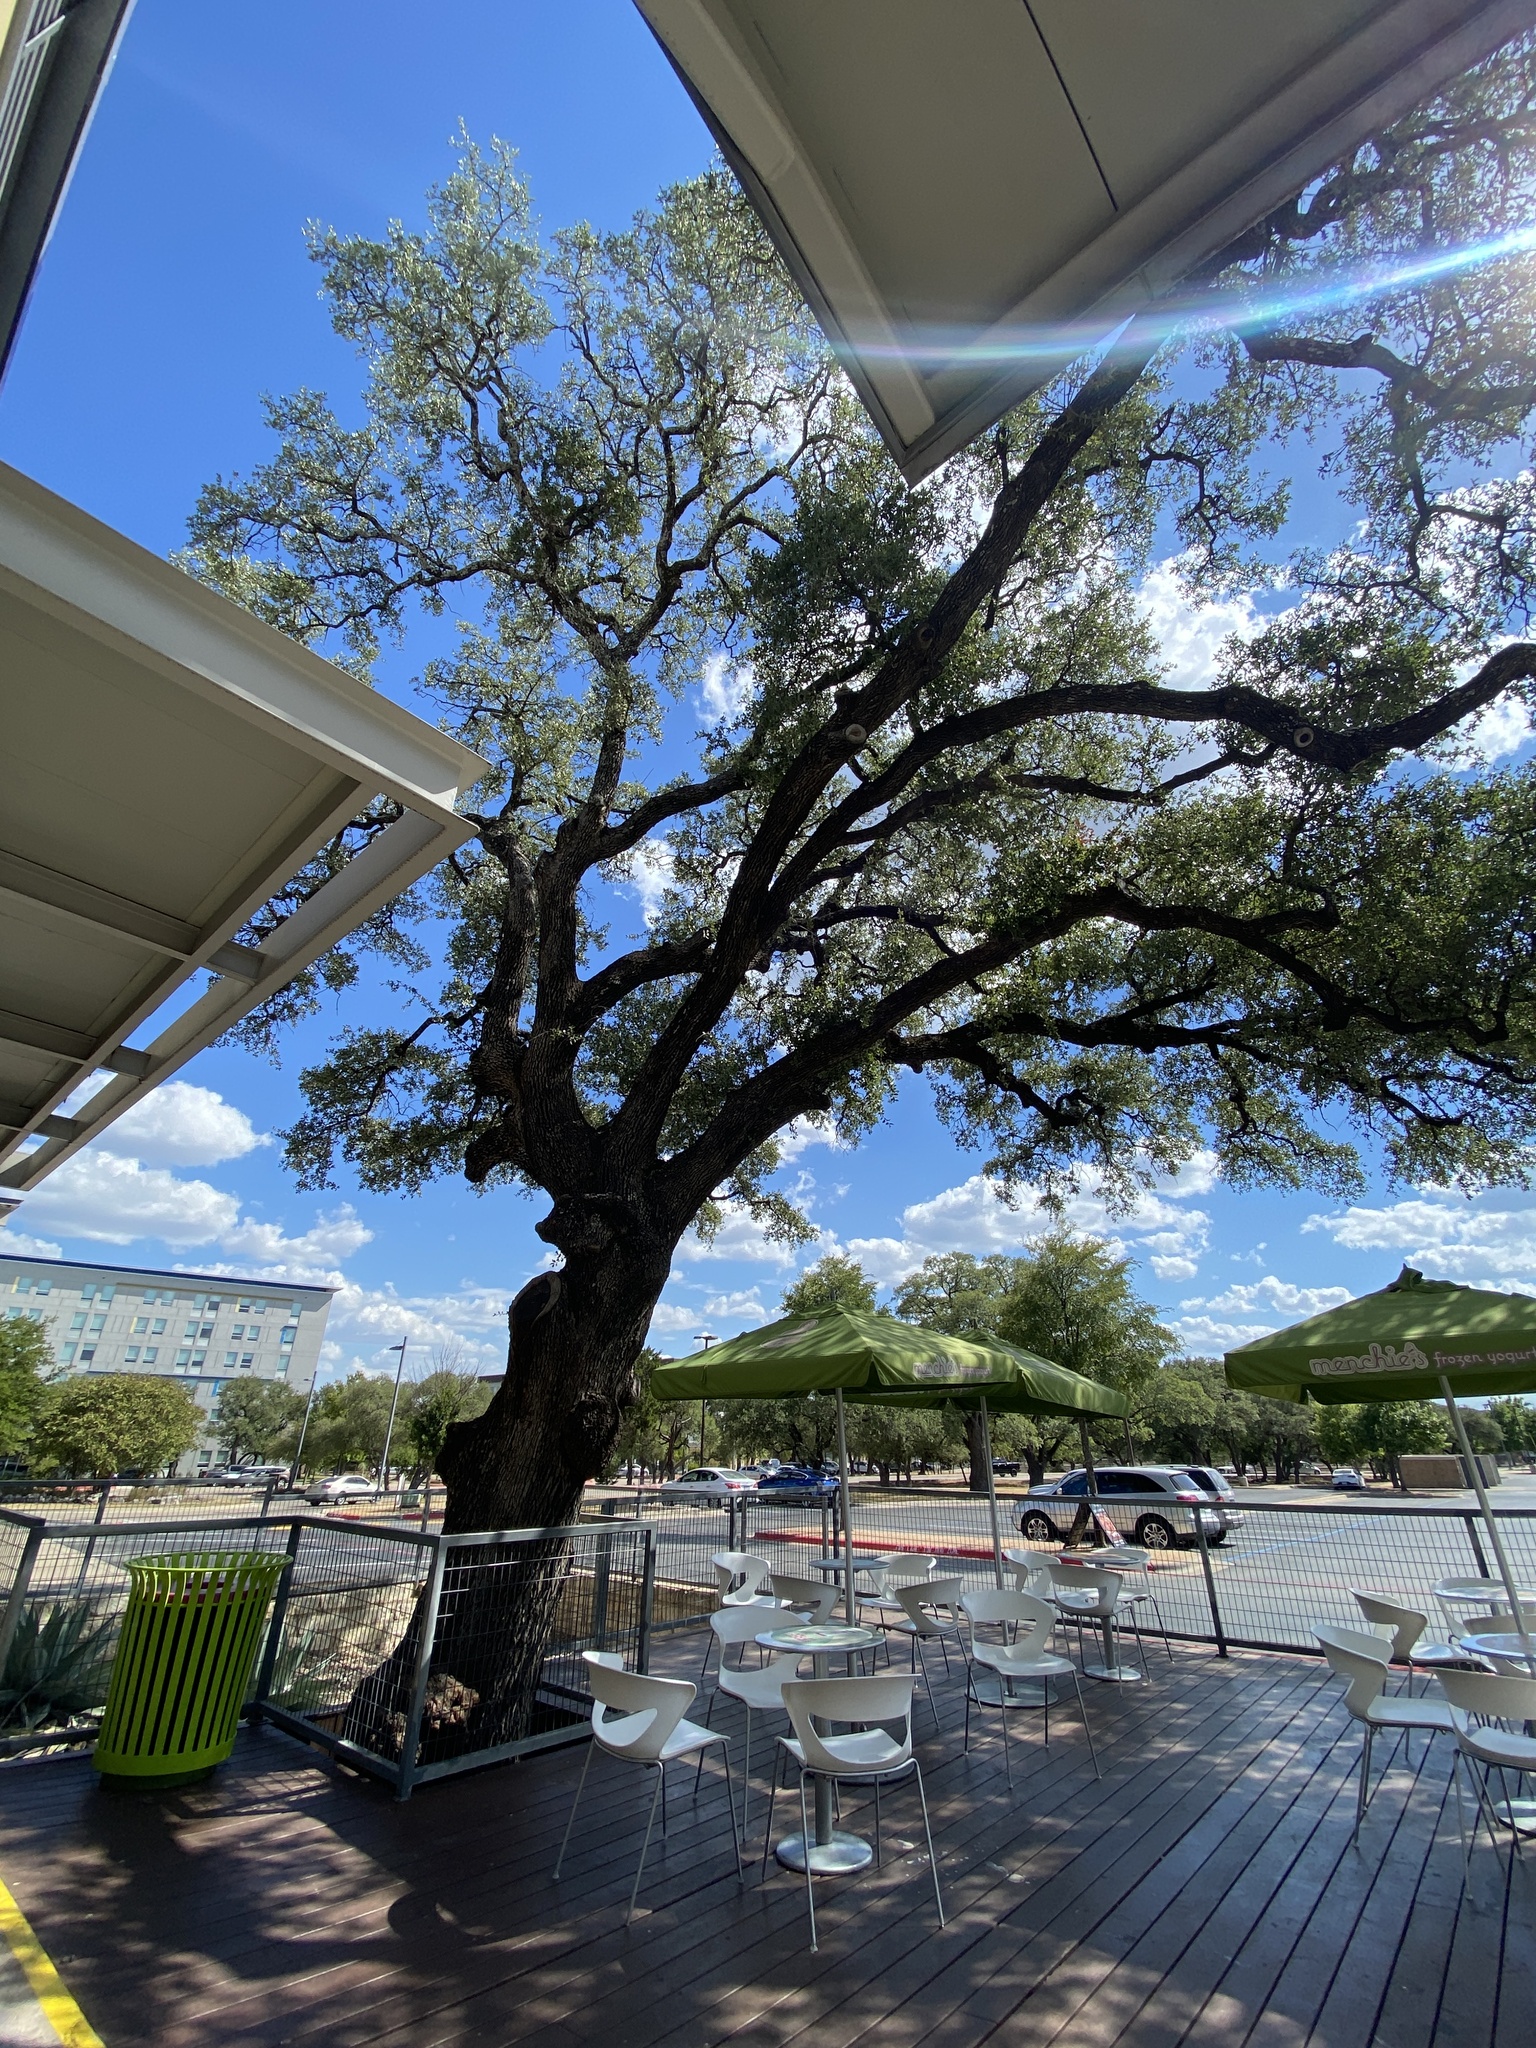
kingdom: Plantae
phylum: Tracheophyta
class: Magnoliopsida
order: Fagales
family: Fagaceae
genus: Quercus
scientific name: Quercus fusiformis
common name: Texas live oak
